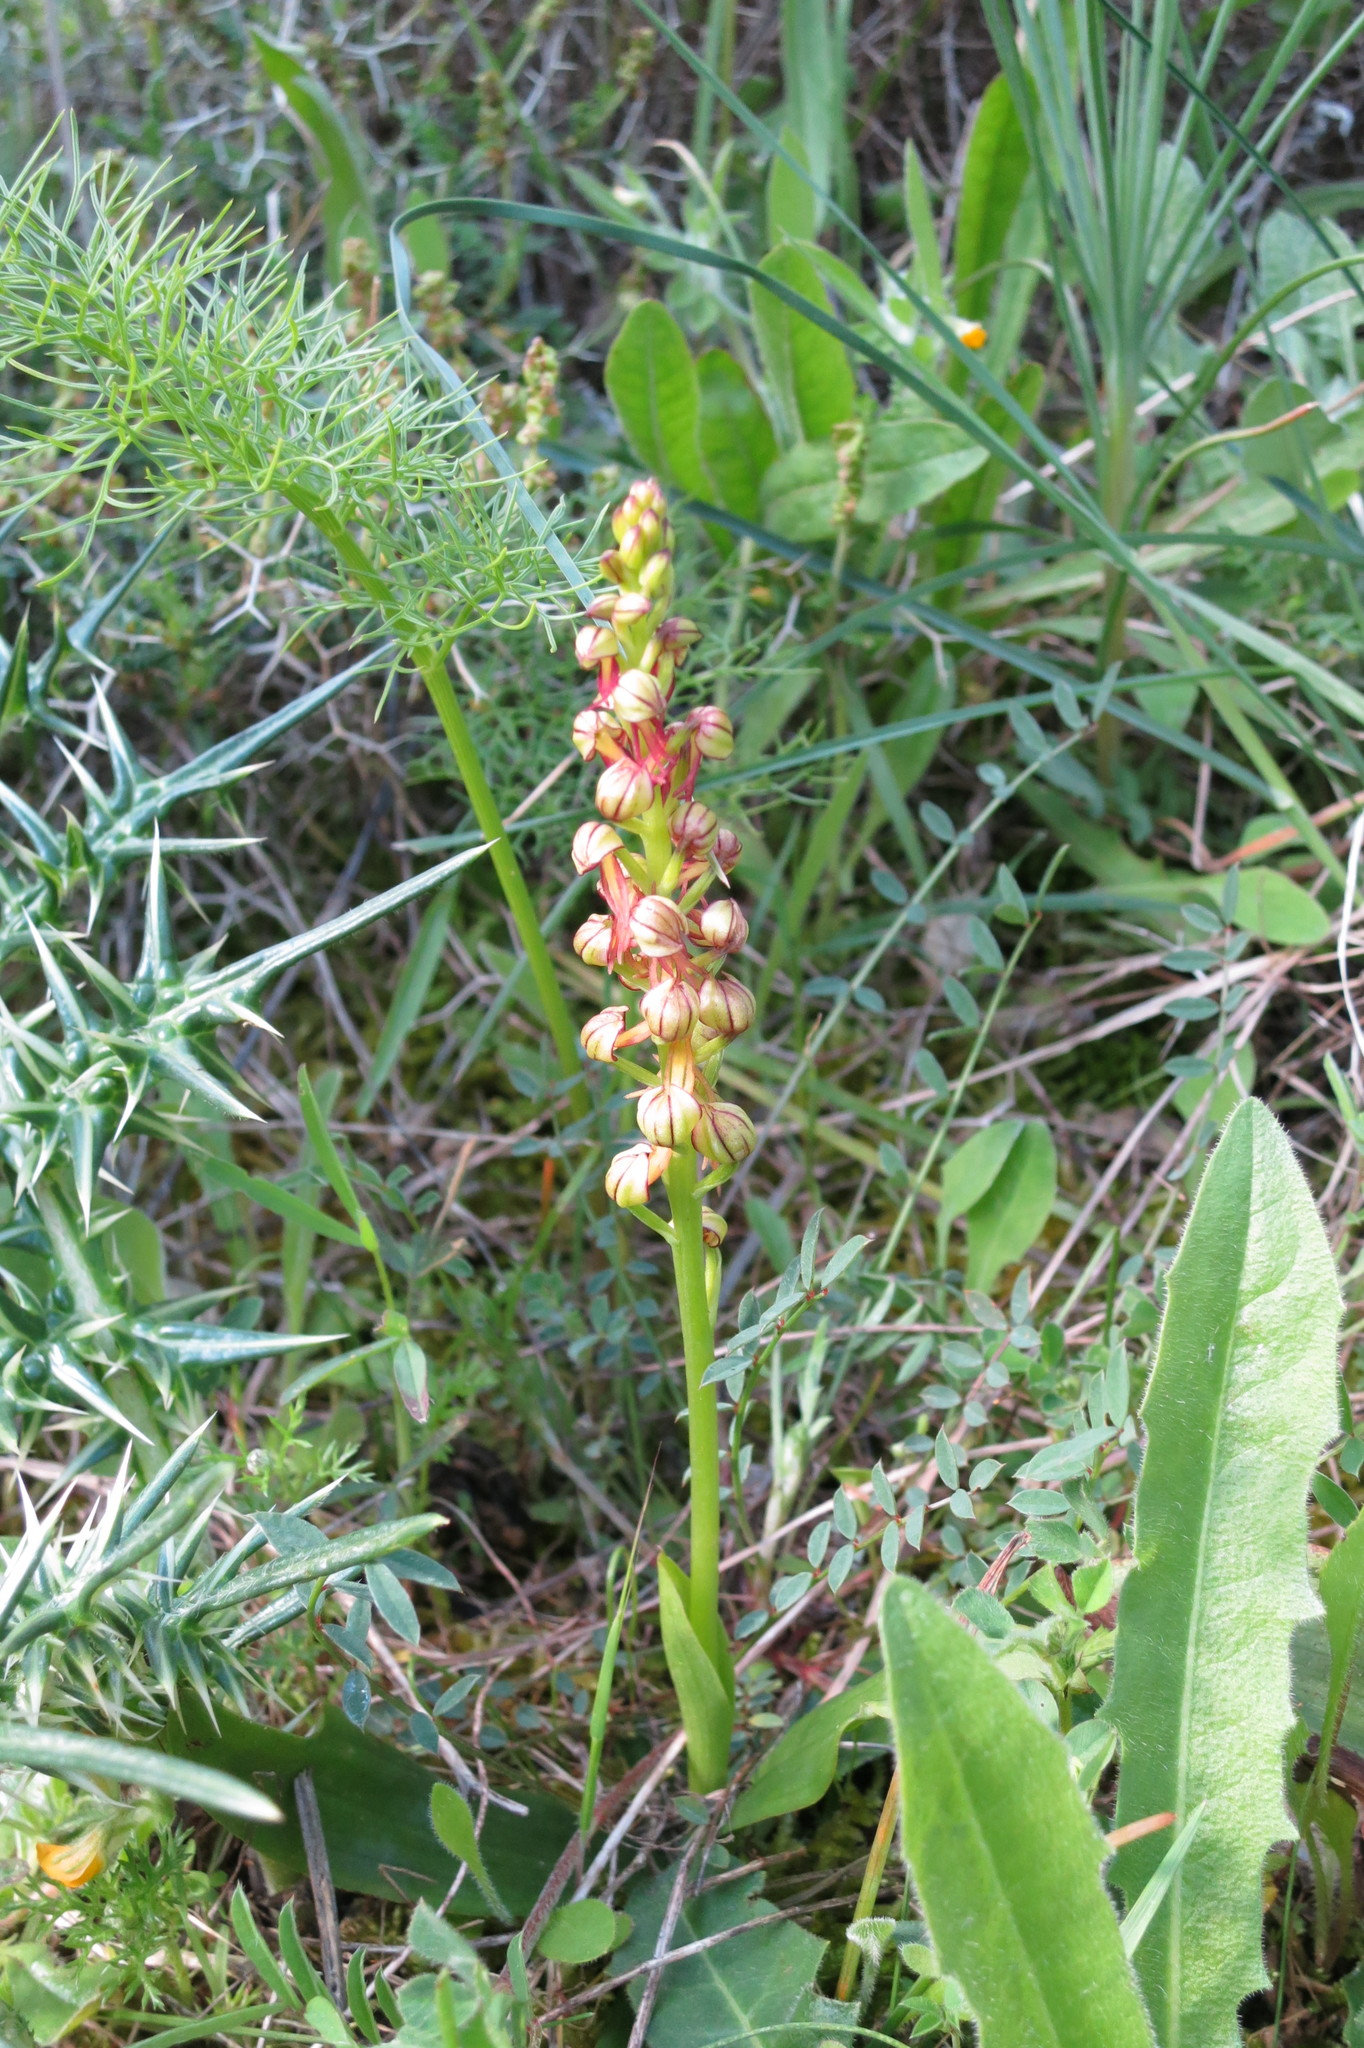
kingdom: Plantae
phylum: Tracheophyta
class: Liliopsida
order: Asparagales
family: Orchidaceae
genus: Orchis
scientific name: Orchis anthropophora
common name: Man orchid
